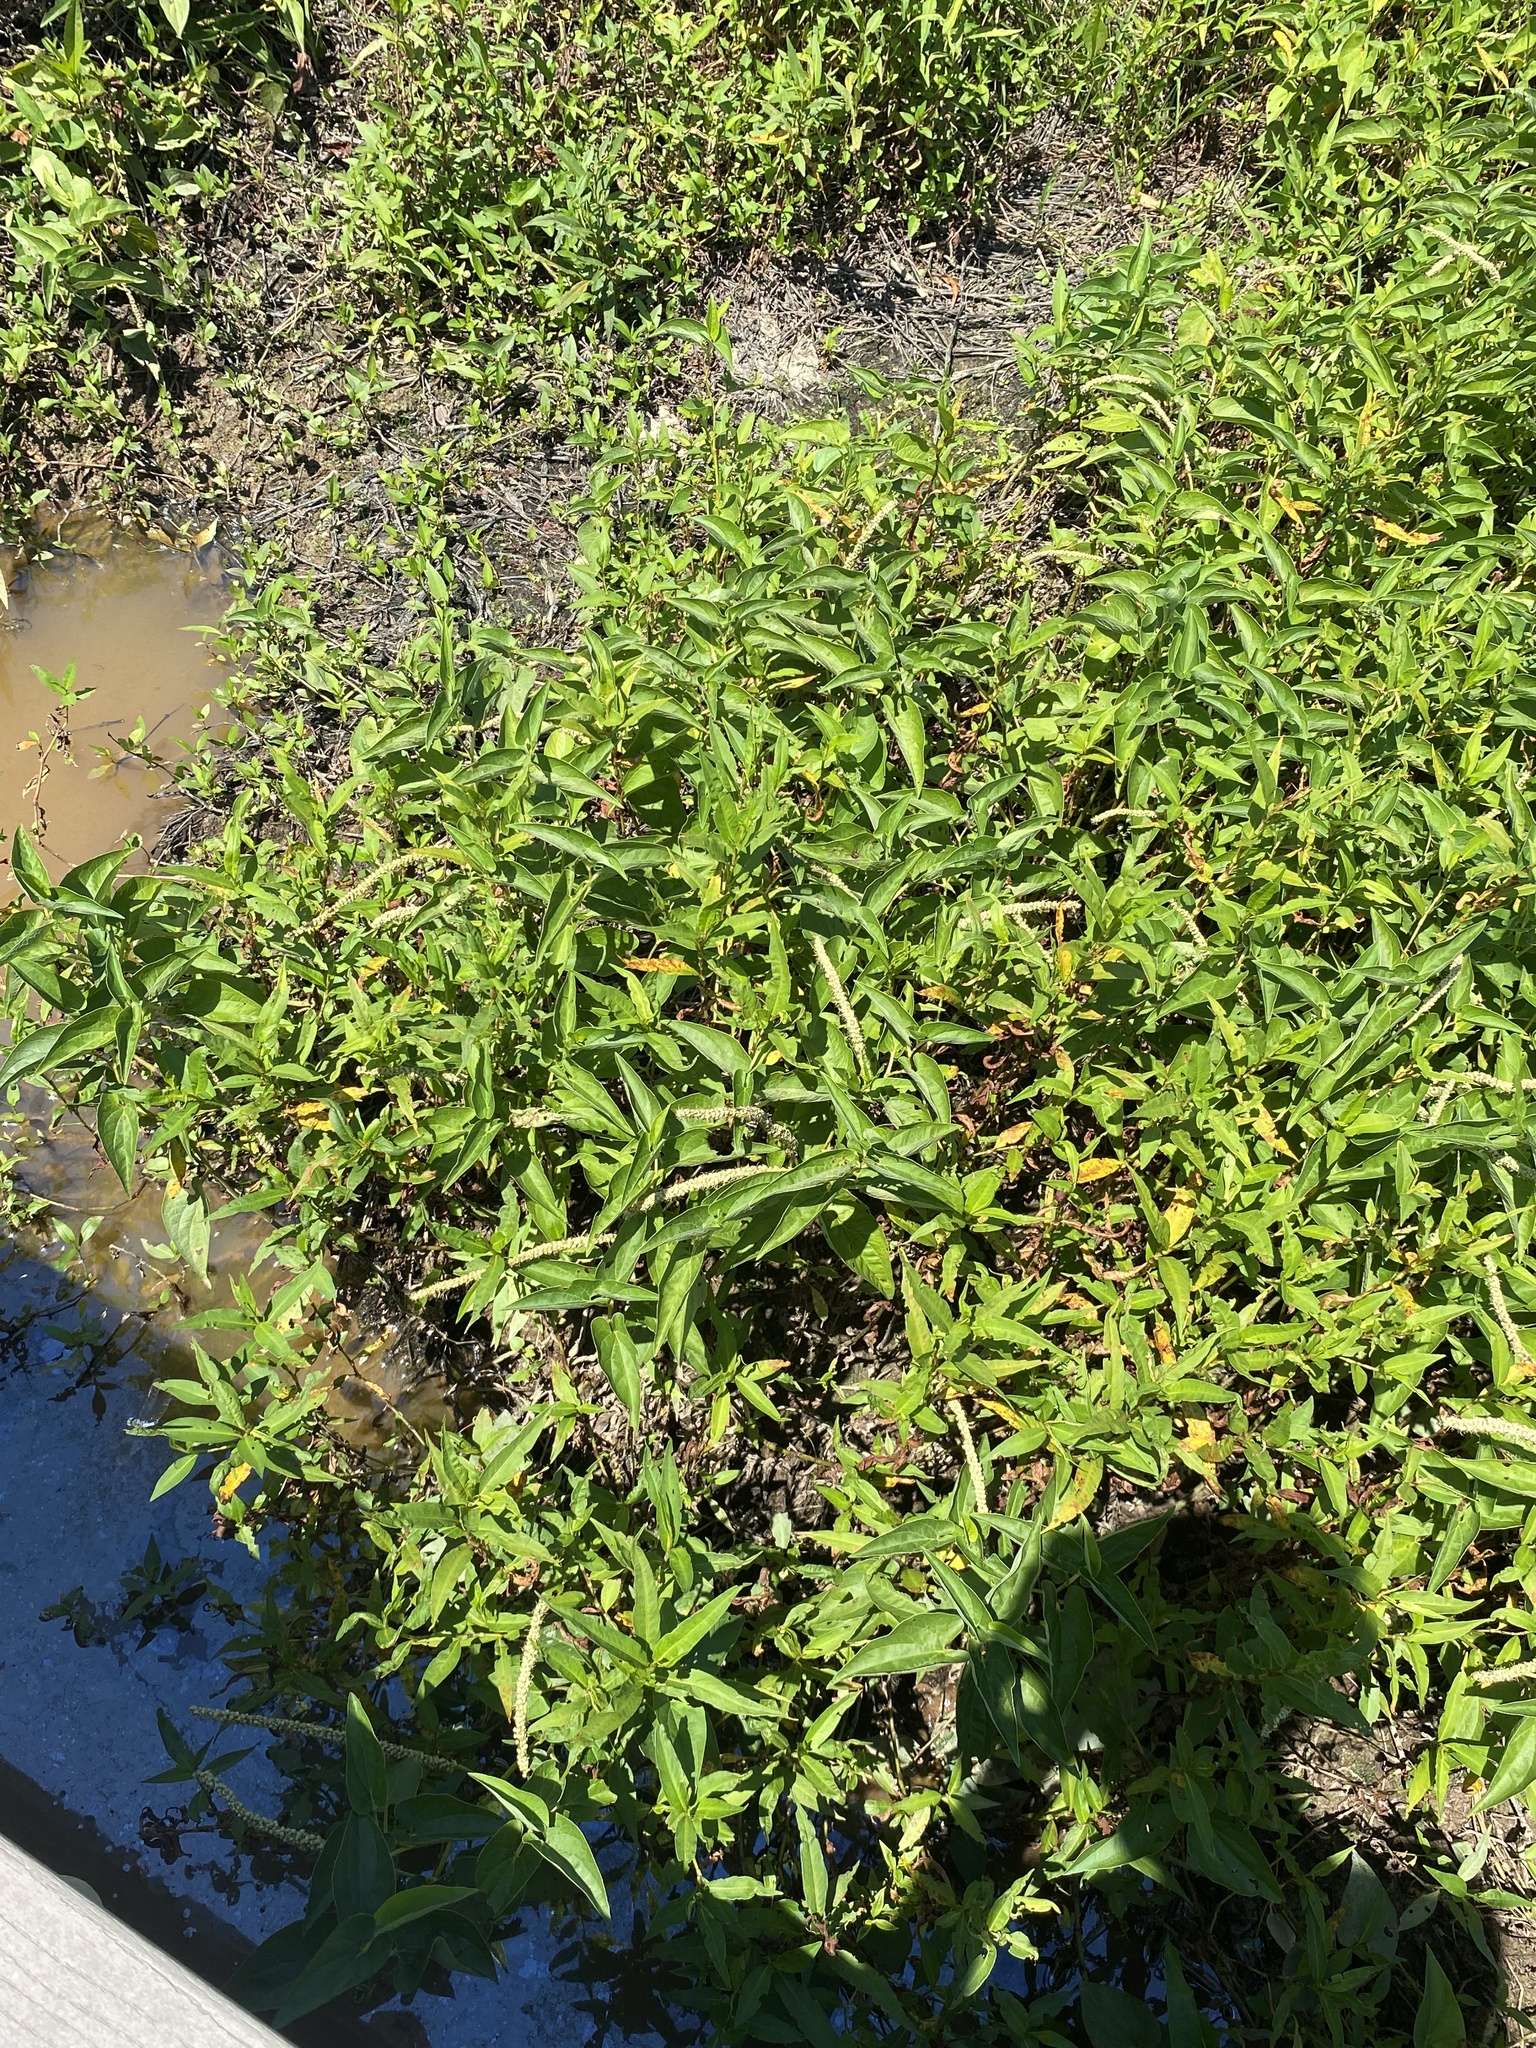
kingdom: Plantae
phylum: Tracheophyta
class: Magnoliopsida
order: Piperales
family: Saururaceae
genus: Saururus
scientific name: Saururus cernuus
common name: Lizard's-tail
